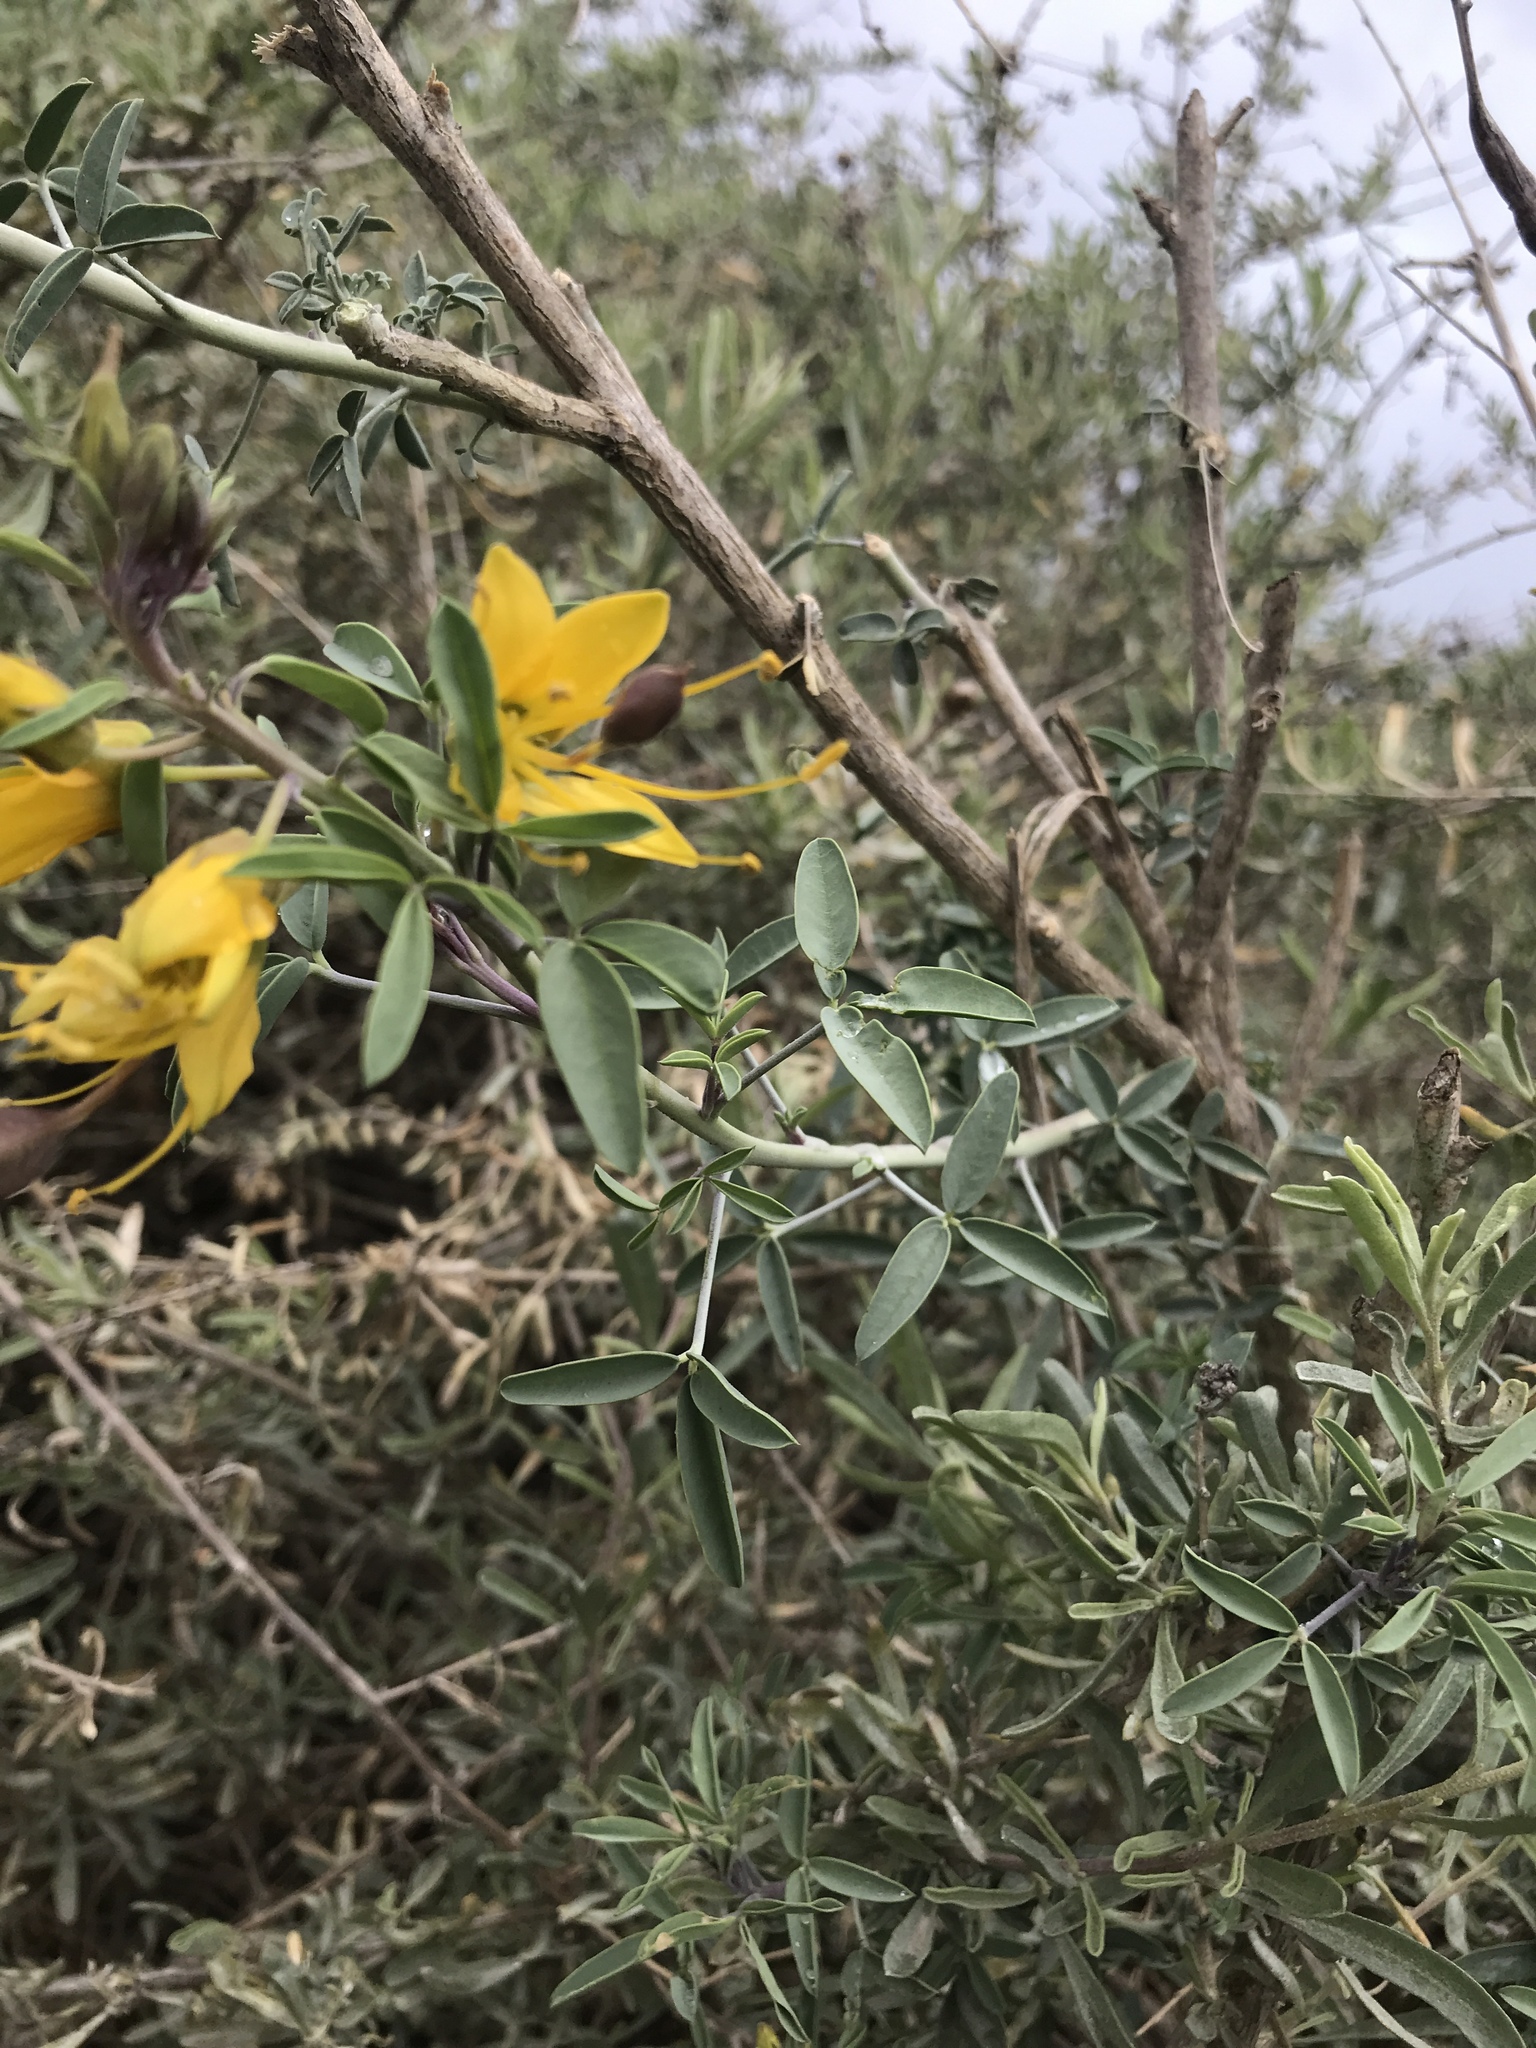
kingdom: Plantae
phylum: Tracheophyta
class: Magnoliopsida
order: Brassicales
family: Cleomaceae
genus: Cleomella
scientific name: Cleomella arborea
